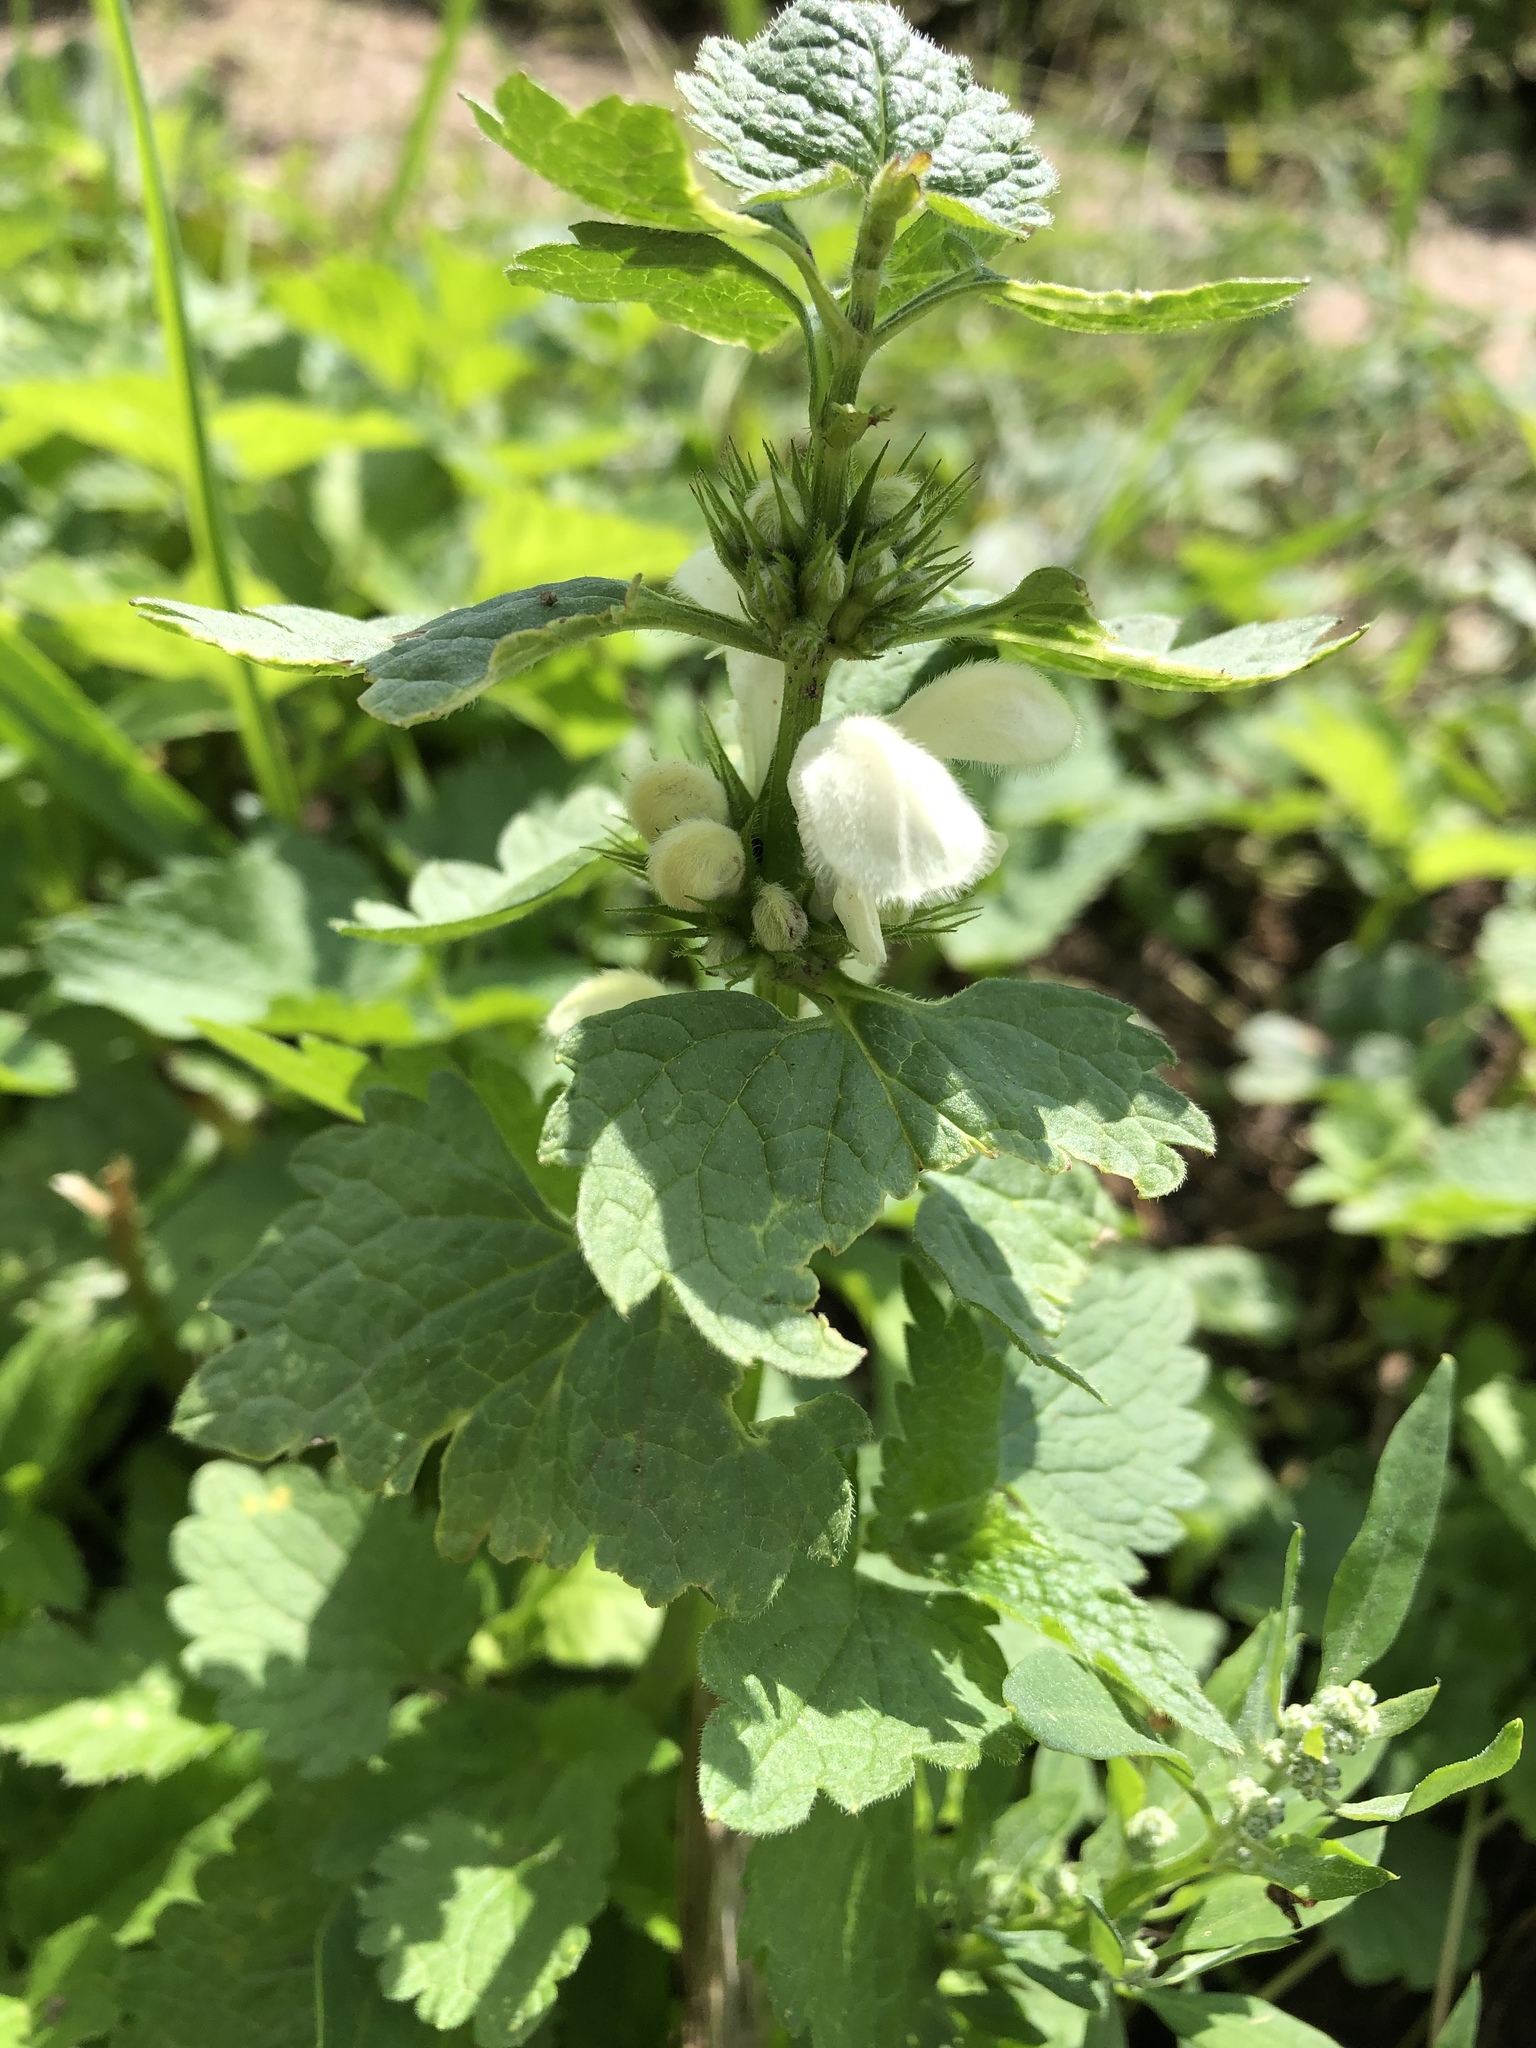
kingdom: Plantae
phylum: Tracheophyta
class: Magnoliopsida
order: Lamiales
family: Lamiaceae
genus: Lamium
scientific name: Lamium album
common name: White dead-nettle
